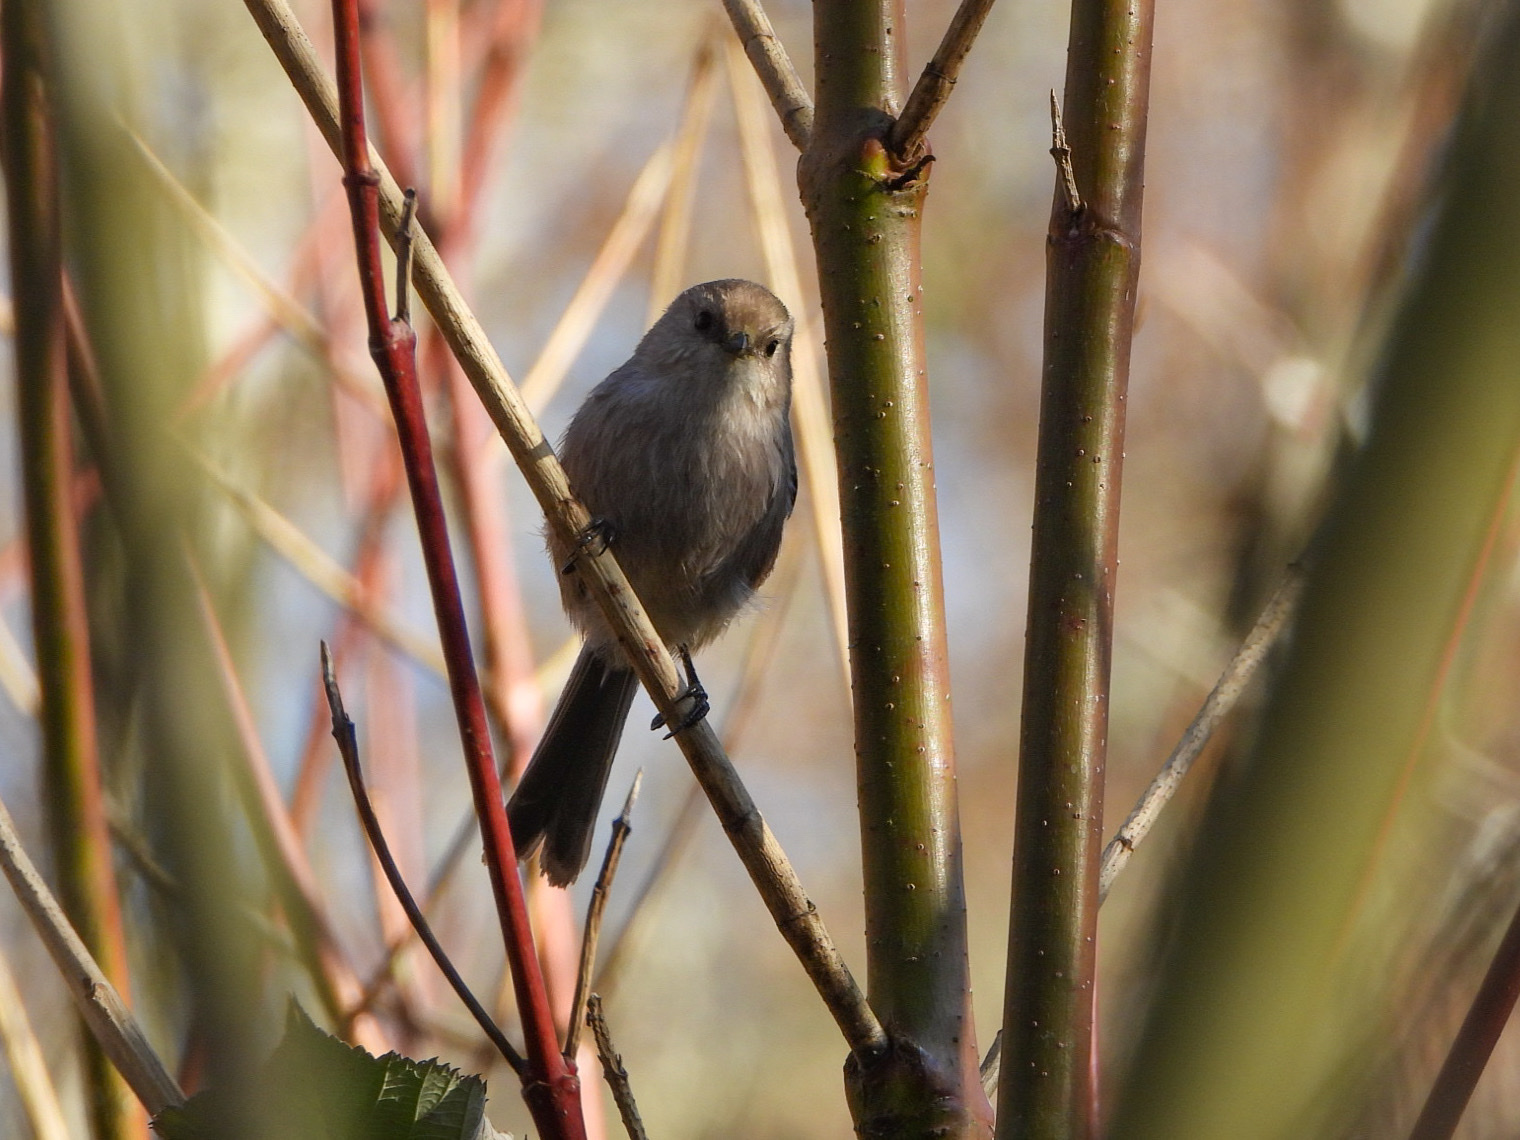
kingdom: Animalia
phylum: Chordata
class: Aves
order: Passeriformes
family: Aegithalidae
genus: Psaltriparus
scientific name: Psaltriparus minimus
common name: American bushtit
